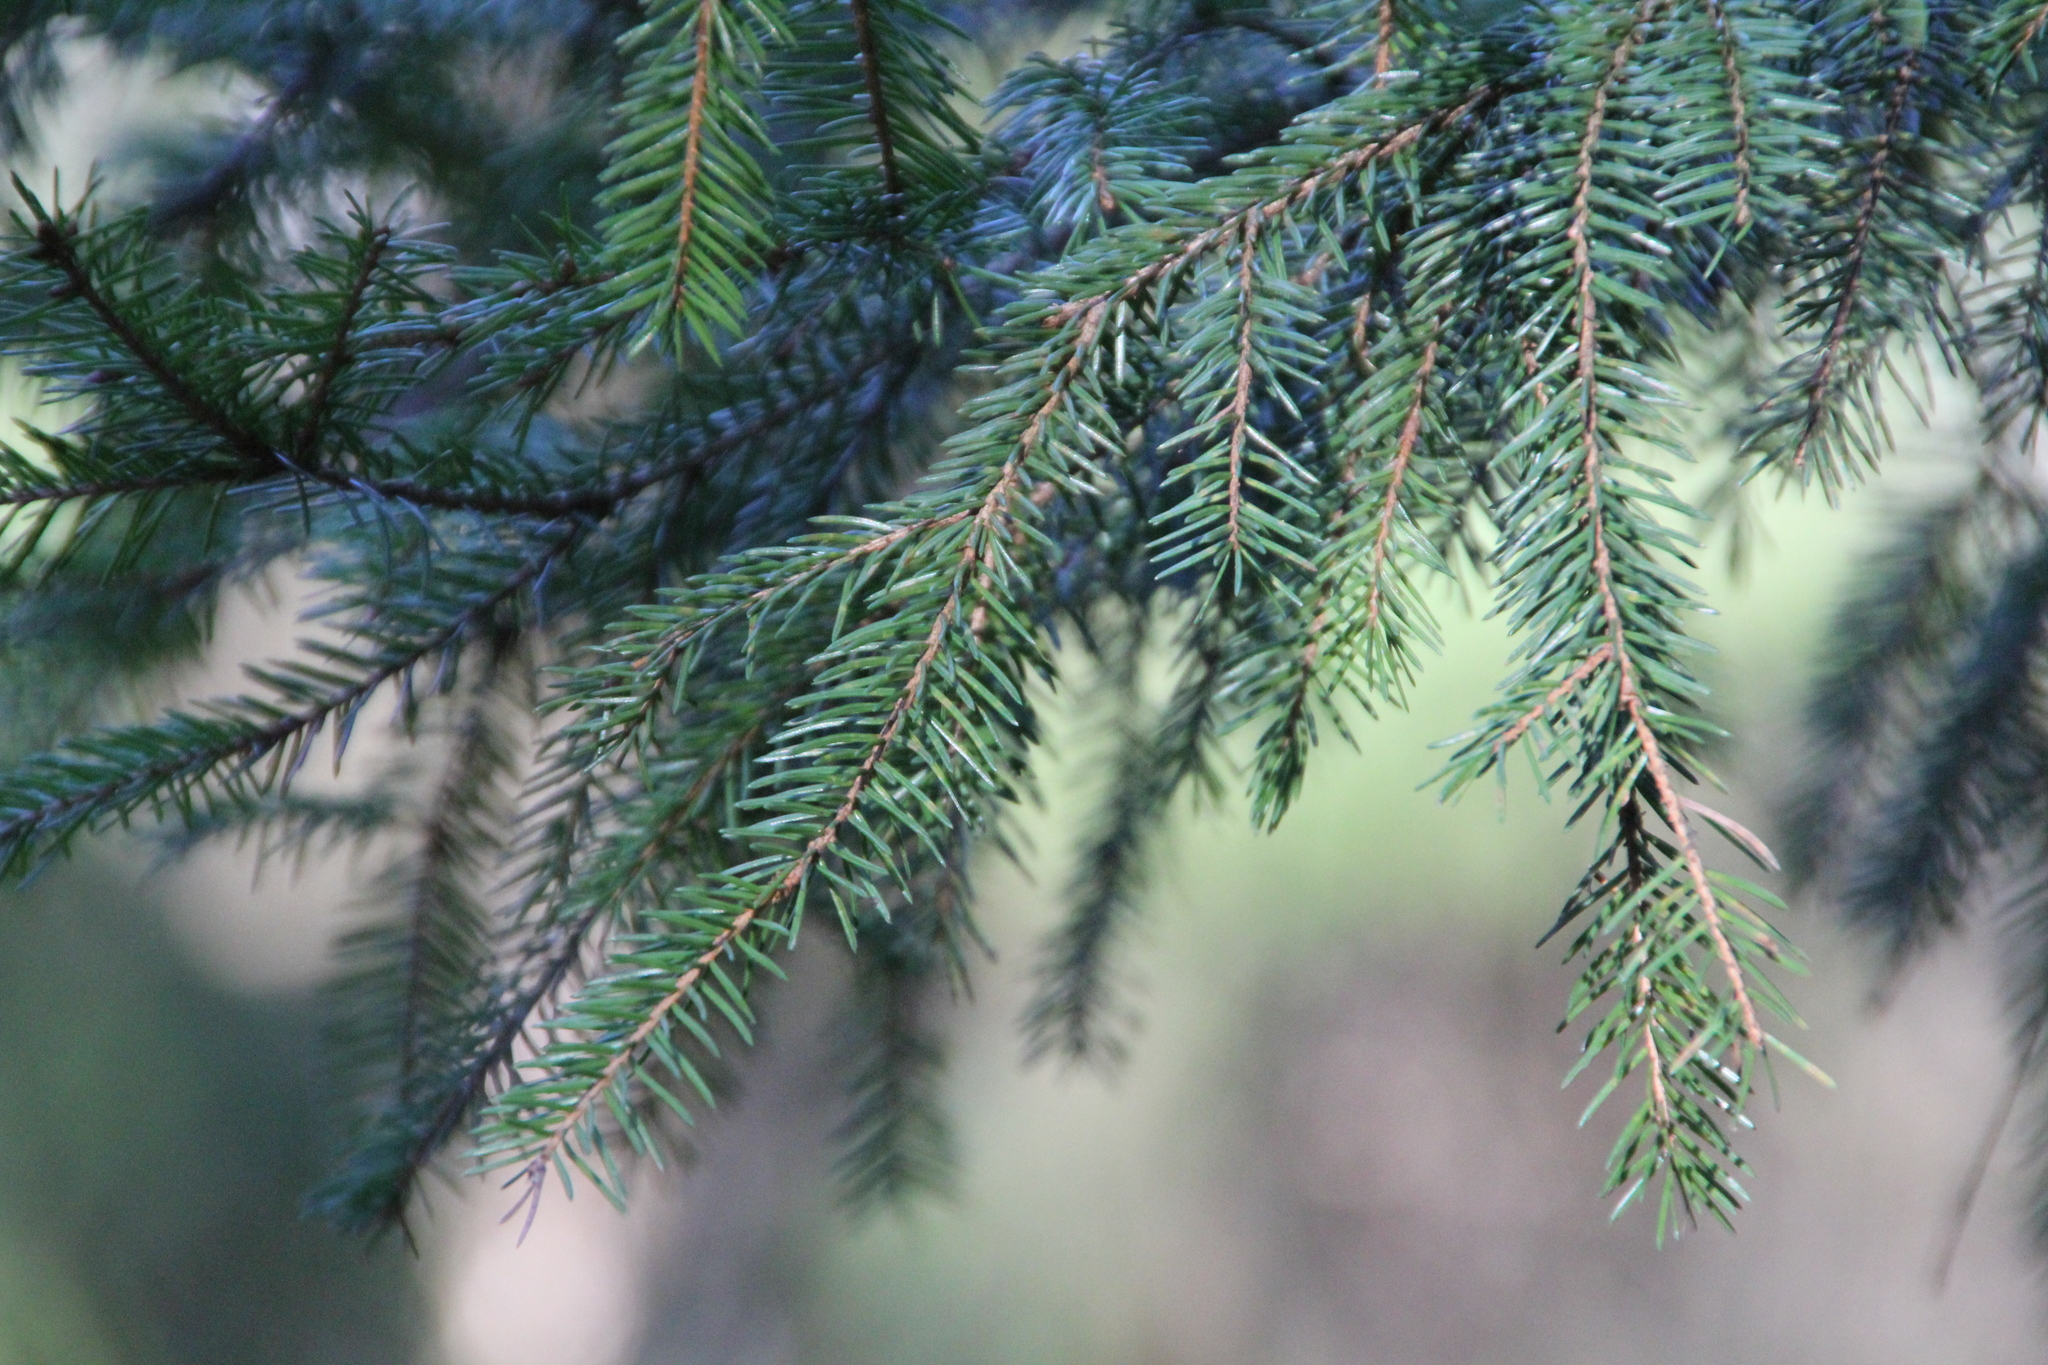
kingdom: Plantae
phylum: Tracheophyta
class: Pinopsida
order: Pinales
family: Pinaceae
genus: Picea
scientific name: Picea abies
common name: Norway spruce
